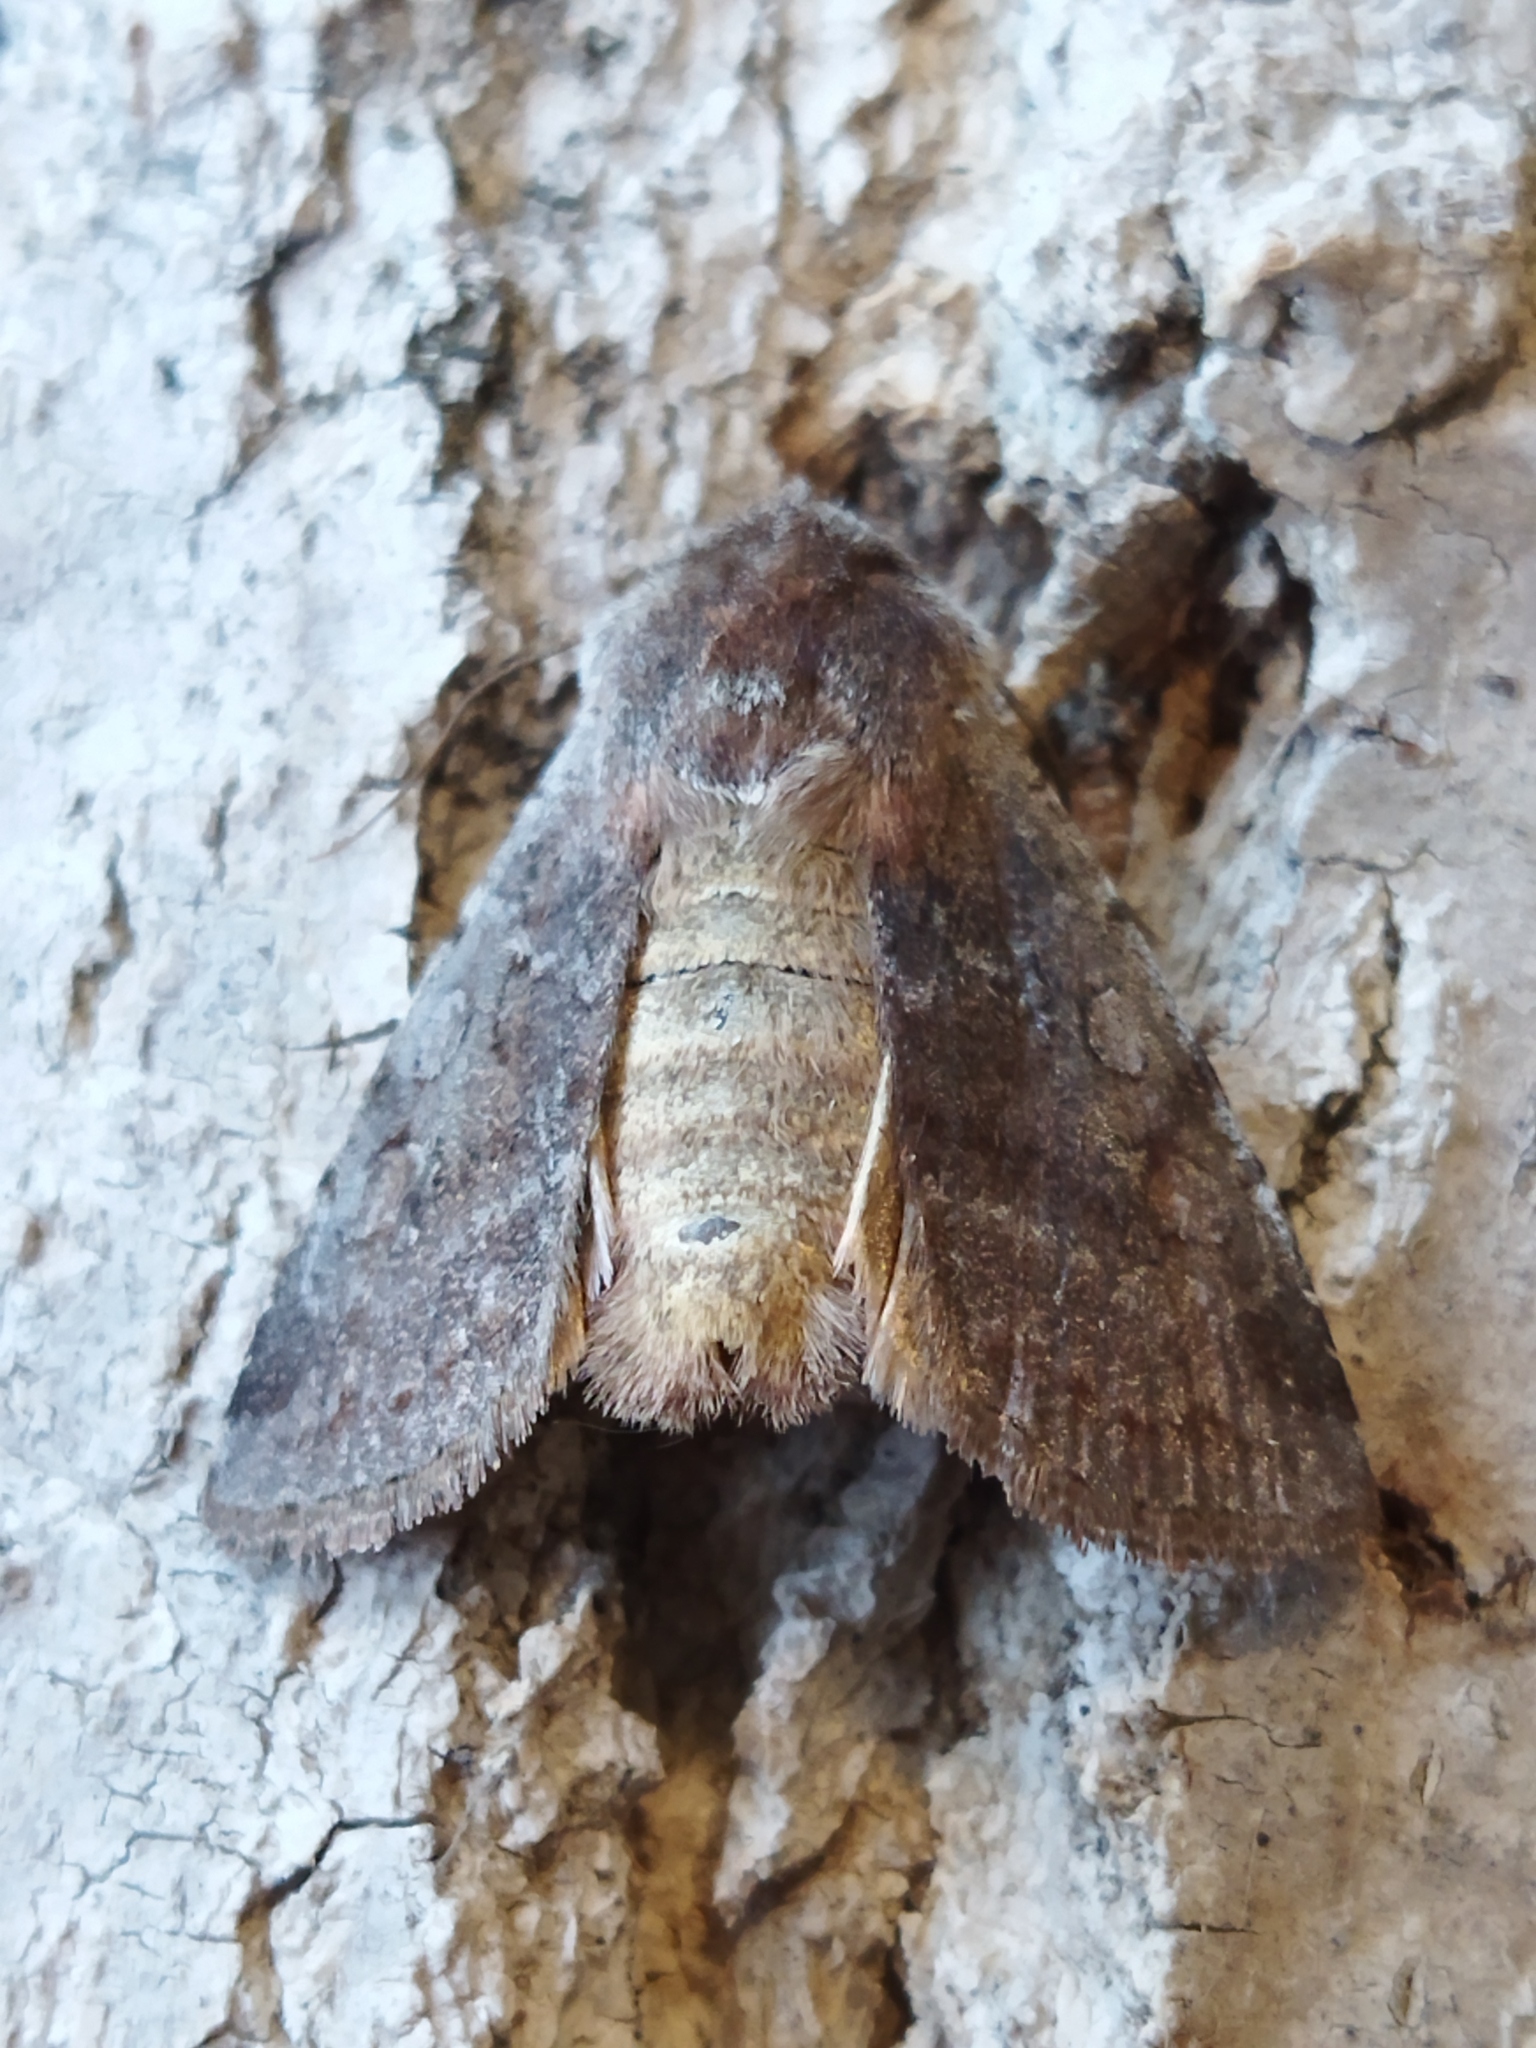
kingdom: Animalia
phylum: Arthropoda
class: Insecta
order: Lepidoptera
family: Noctuidae
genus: Cerastis
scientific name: Cerastis rubricosa
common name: Red chestnut
